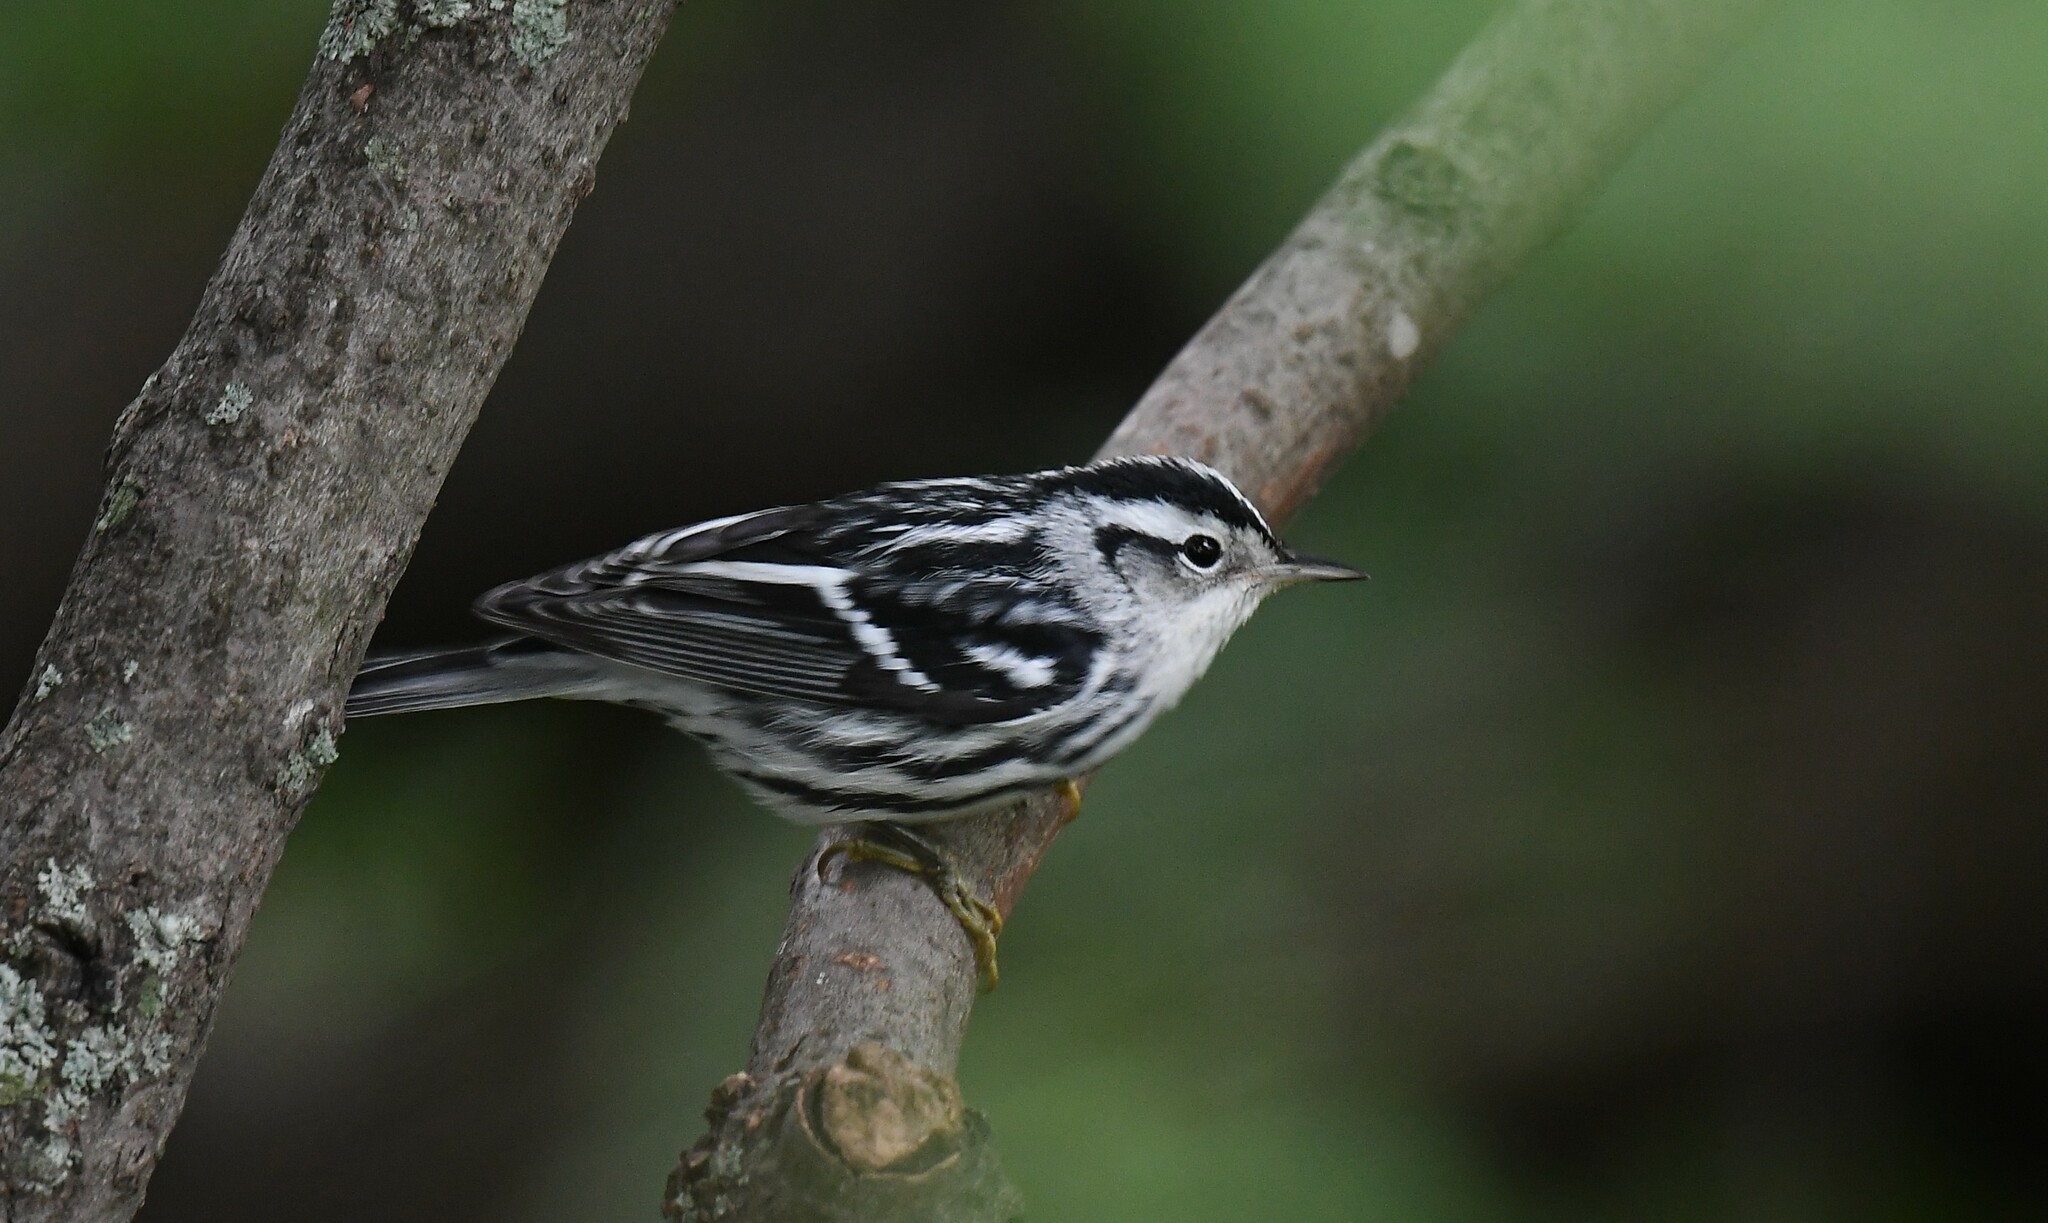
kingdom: Animalia
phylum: Chordata
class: Aves
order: Passeriformes
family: Parulidae
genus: Mniotilta
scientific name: Mniotilta varia
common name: Black-and-white warbler
